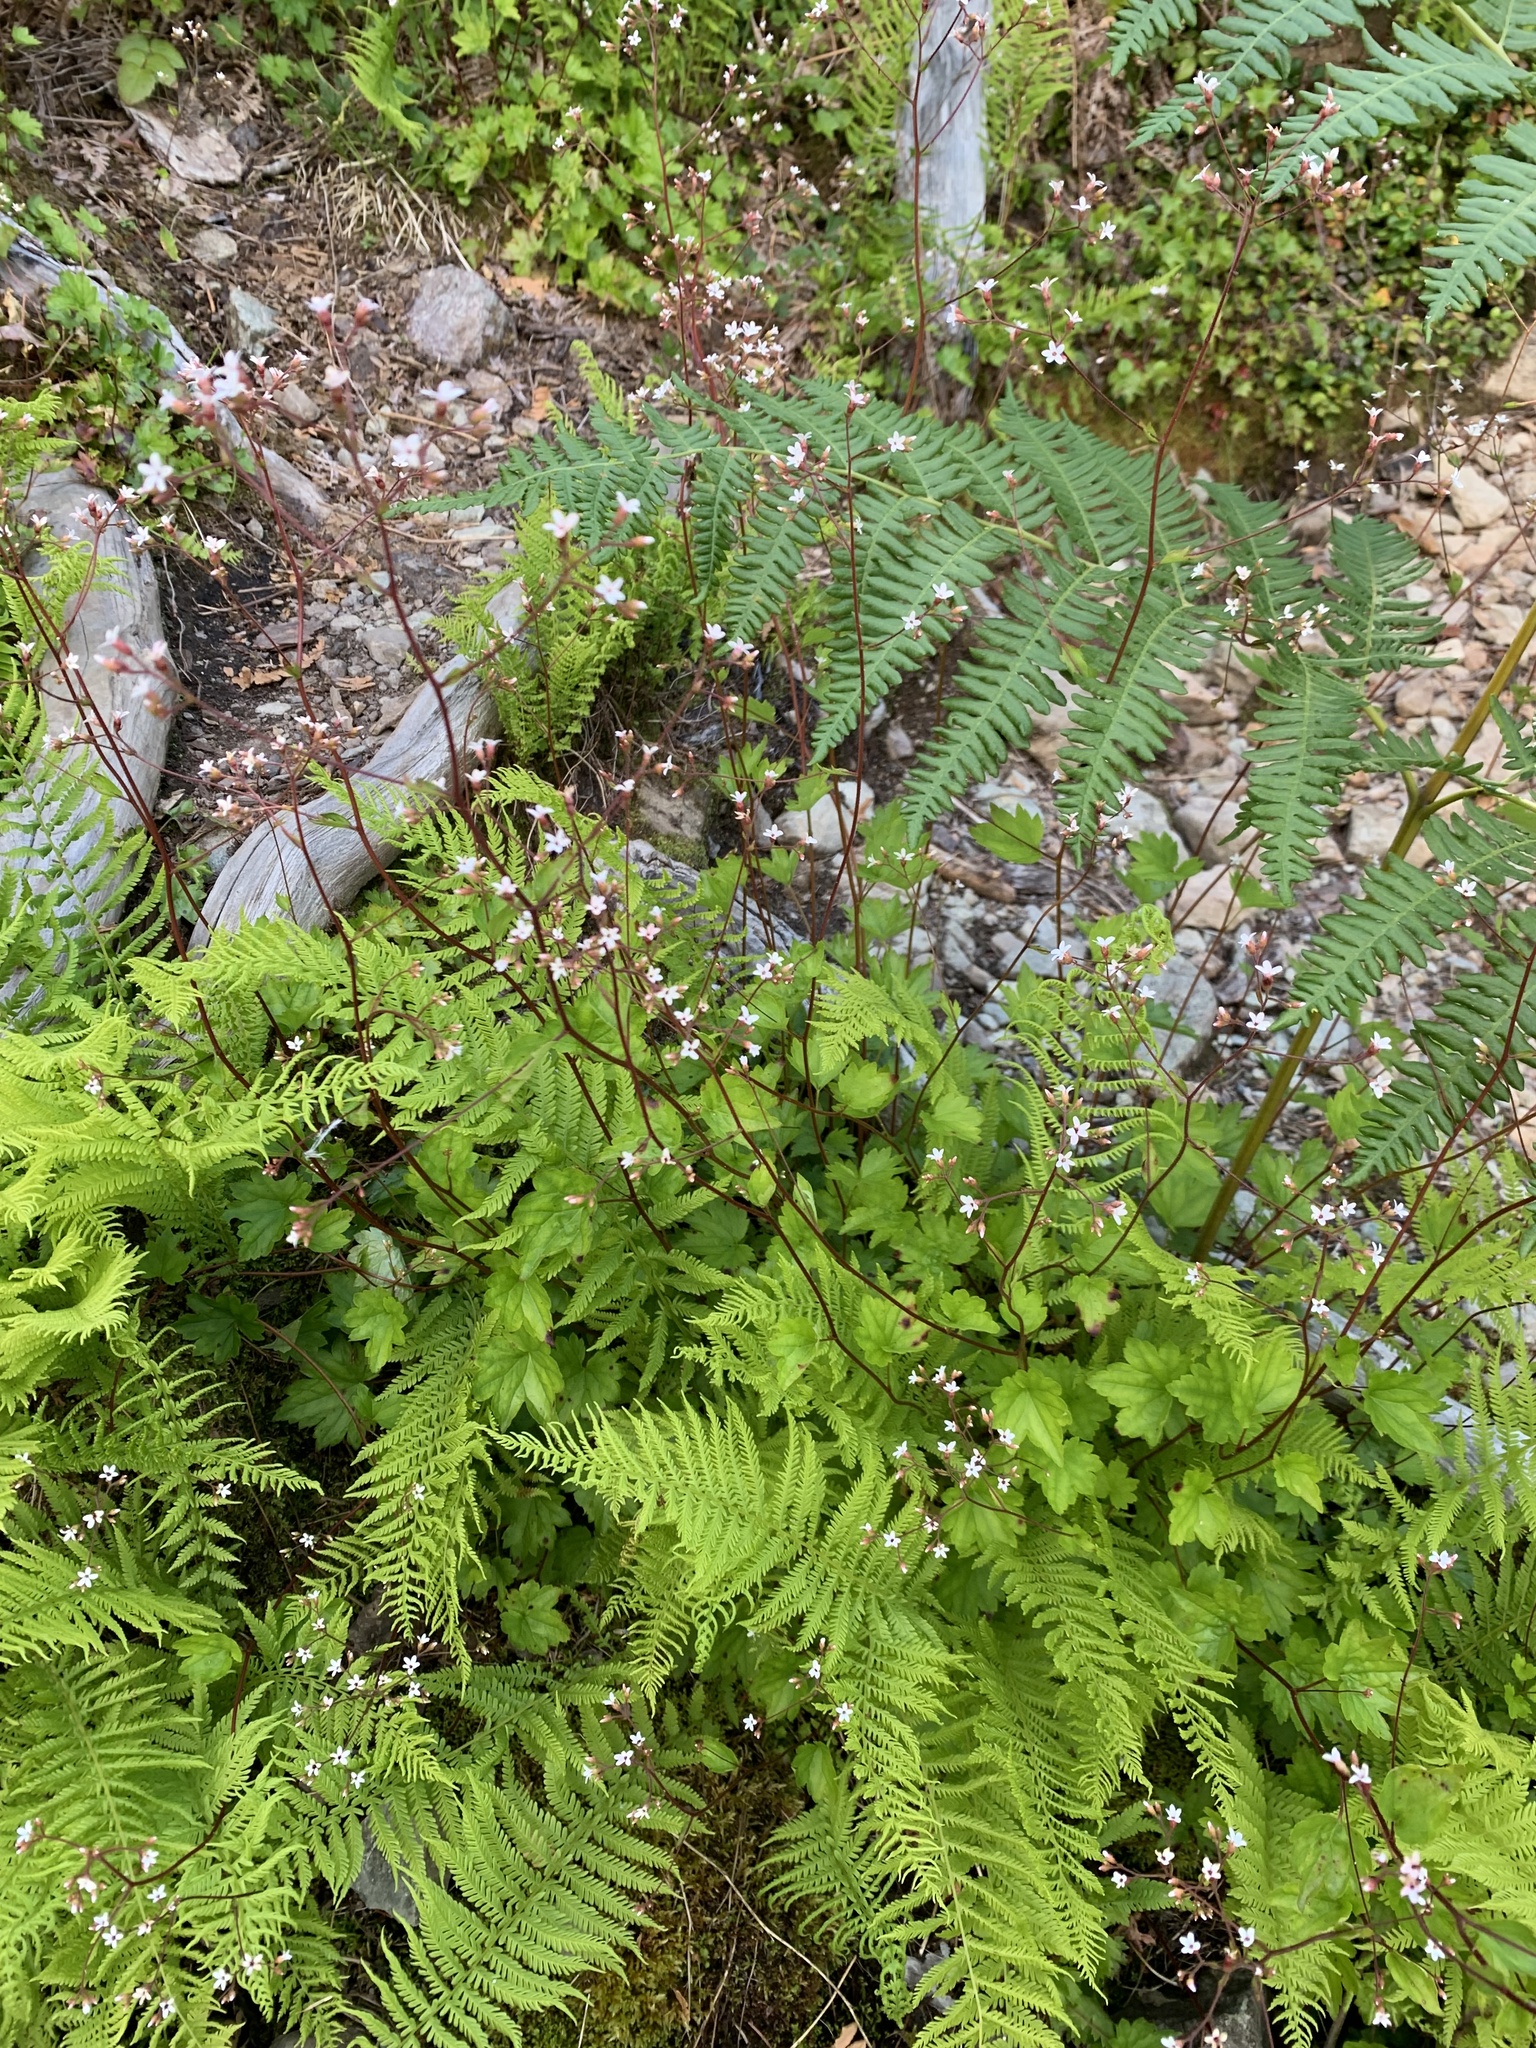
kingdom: Plantae
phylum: Tracheophyta
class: Magnoliopsida
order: Saxifragales
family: Saxifragaceae
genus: Boykinia
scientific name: Boykinia occidentalis
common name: Coast boykinia
